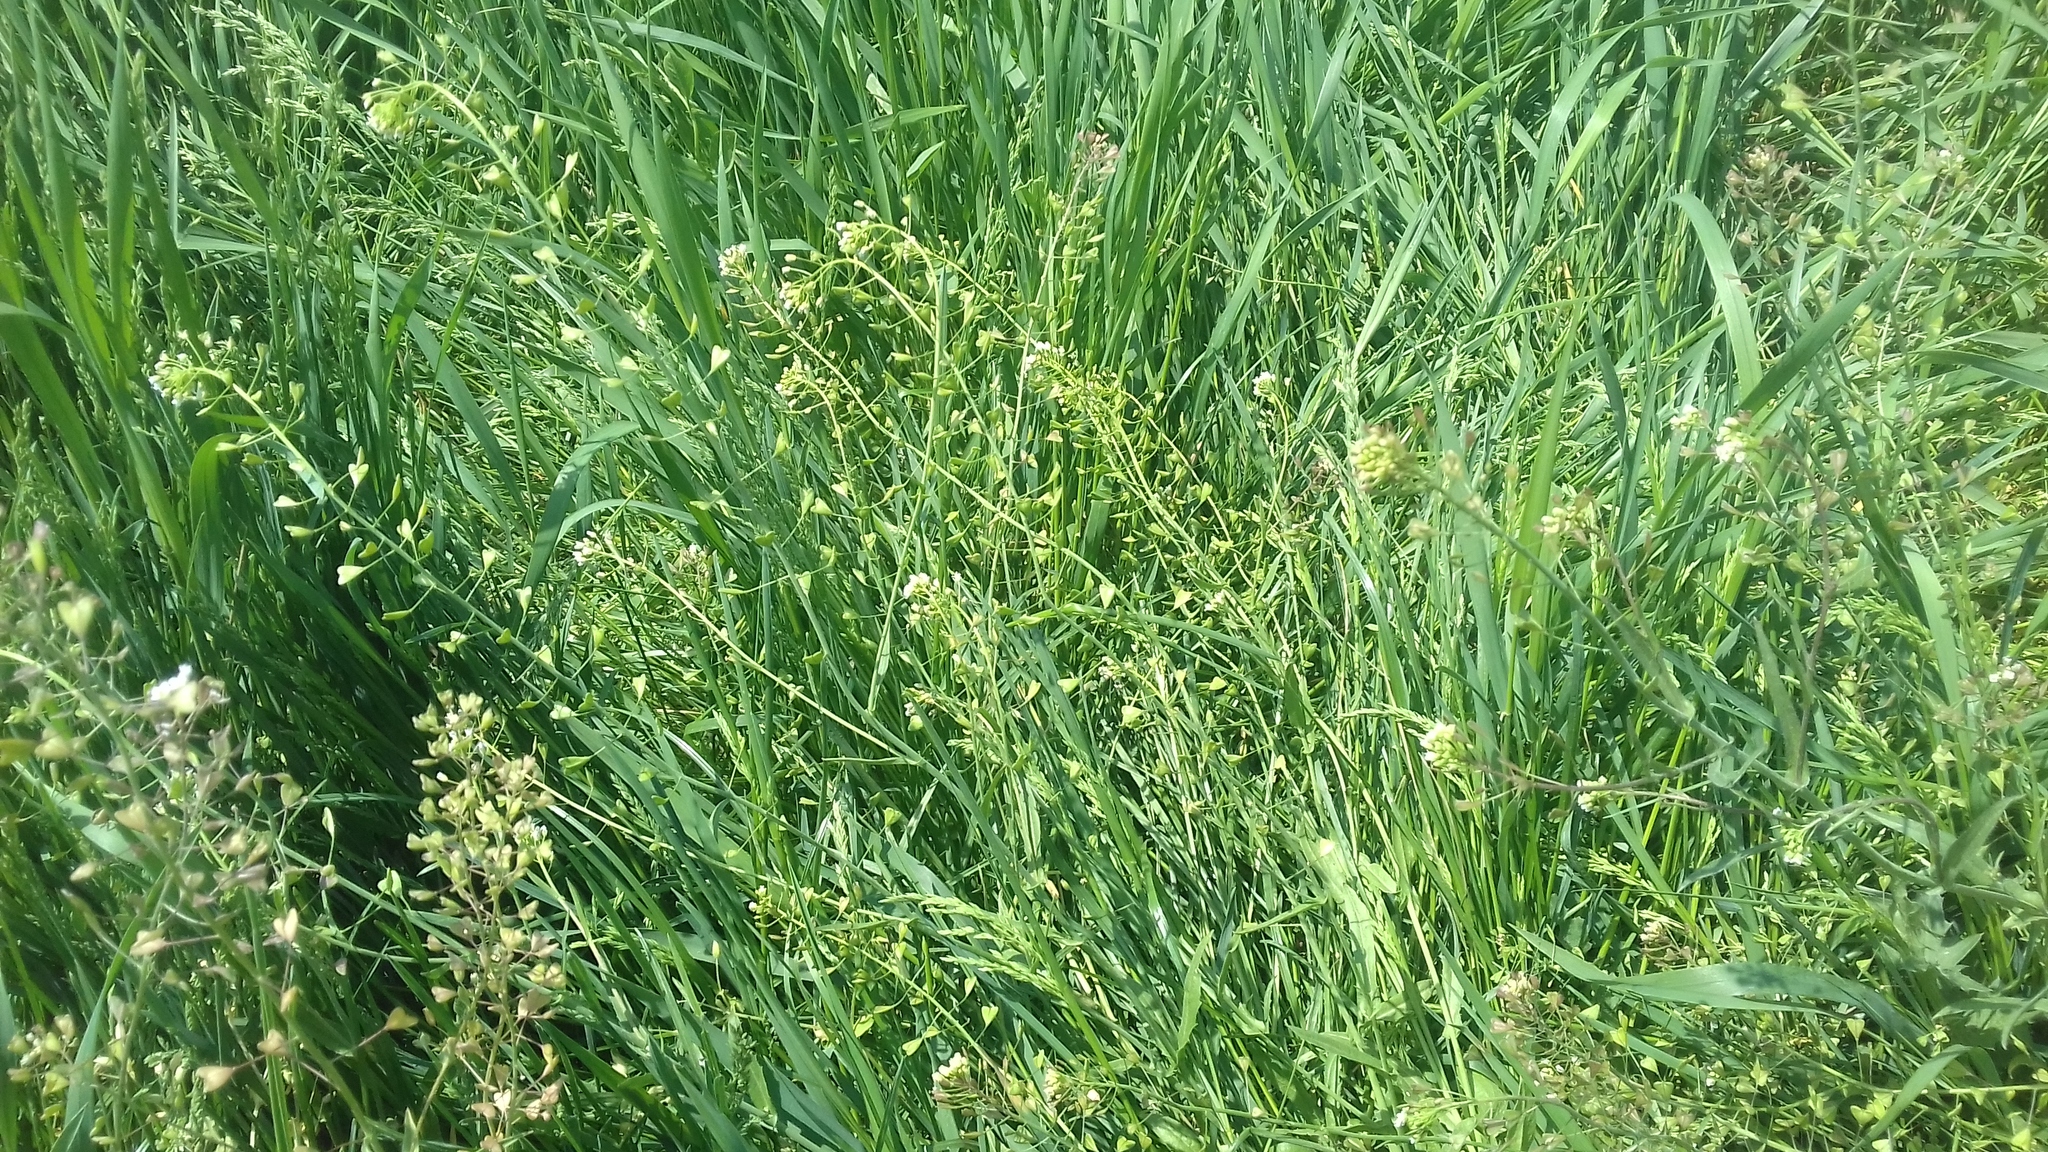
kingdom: Plantae
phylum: Tracheophyta
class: Magnoliopsida
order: Brassicales
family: Brassicaceae
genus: Capsella
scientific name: Capsella bursa-pastoris
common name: Shepherd's purse
